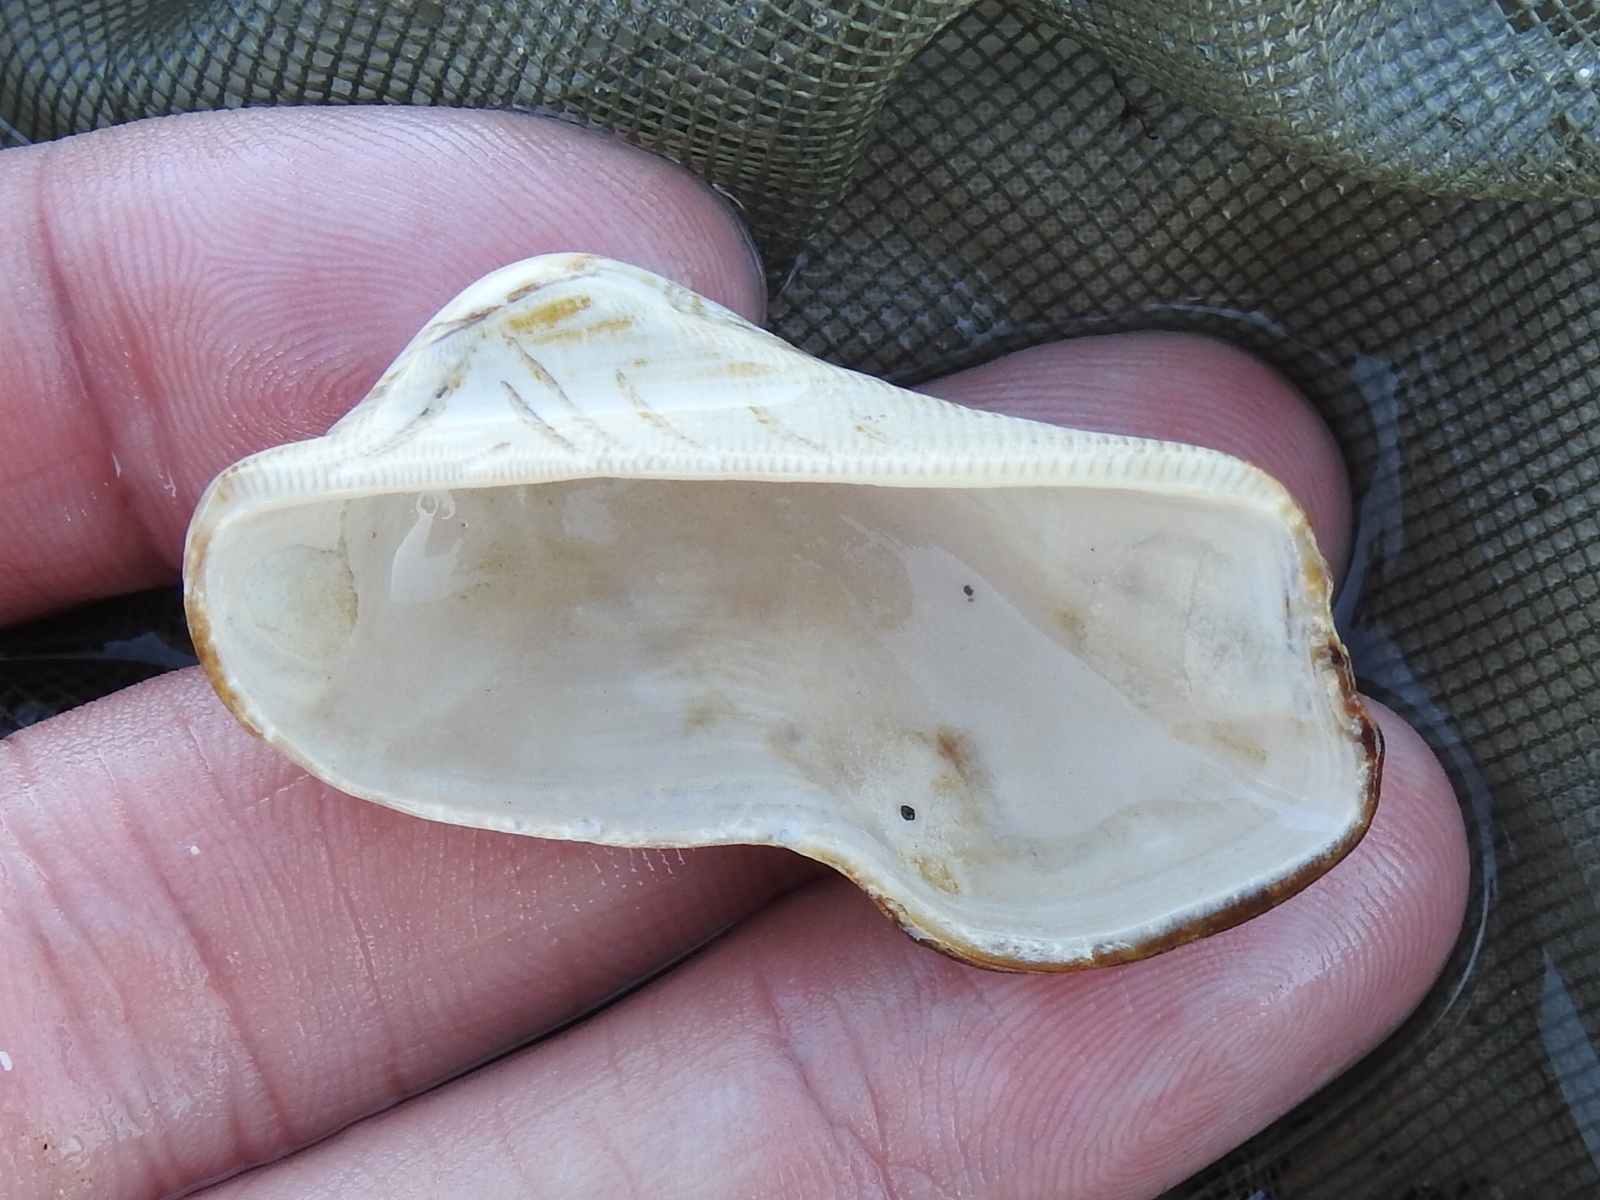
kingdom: Animalia
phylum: Mollusca
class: Bivalvia
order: Arcida
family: Arcidae
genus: Lamarcka
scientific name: Lamarcka imbricata
